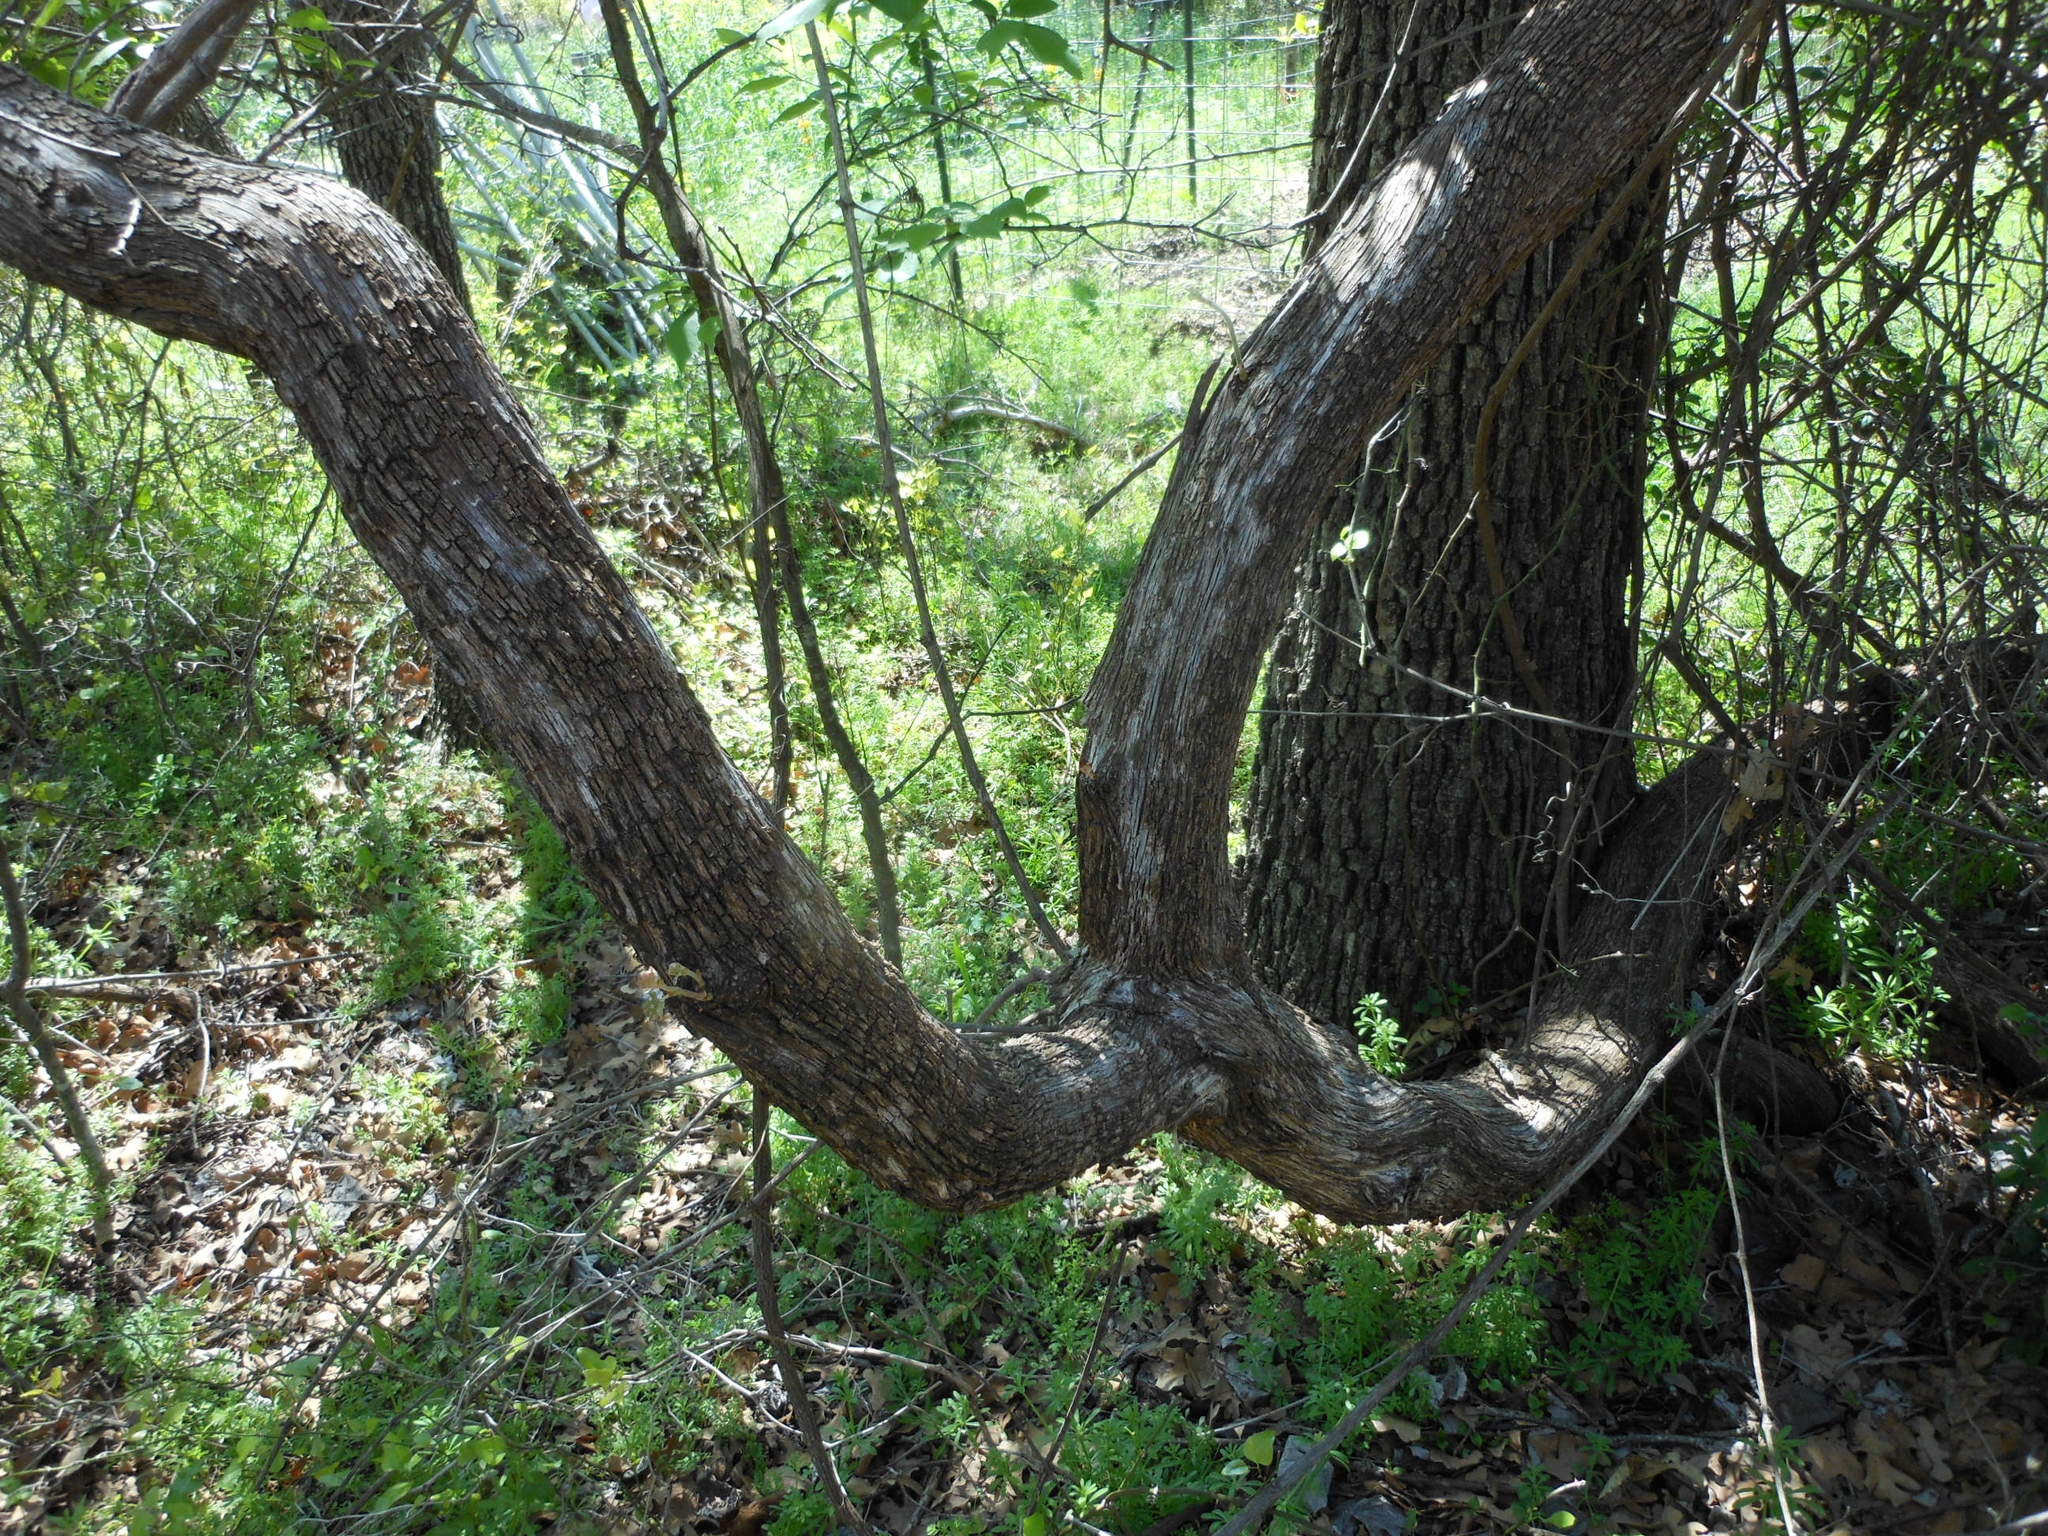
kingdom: Plantae
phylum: Tracheophyta
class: Magnoliopsida
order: Vitales
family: Vitaceae
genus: Vitis
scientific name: Vitis mustangensis
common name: Mustang grape
